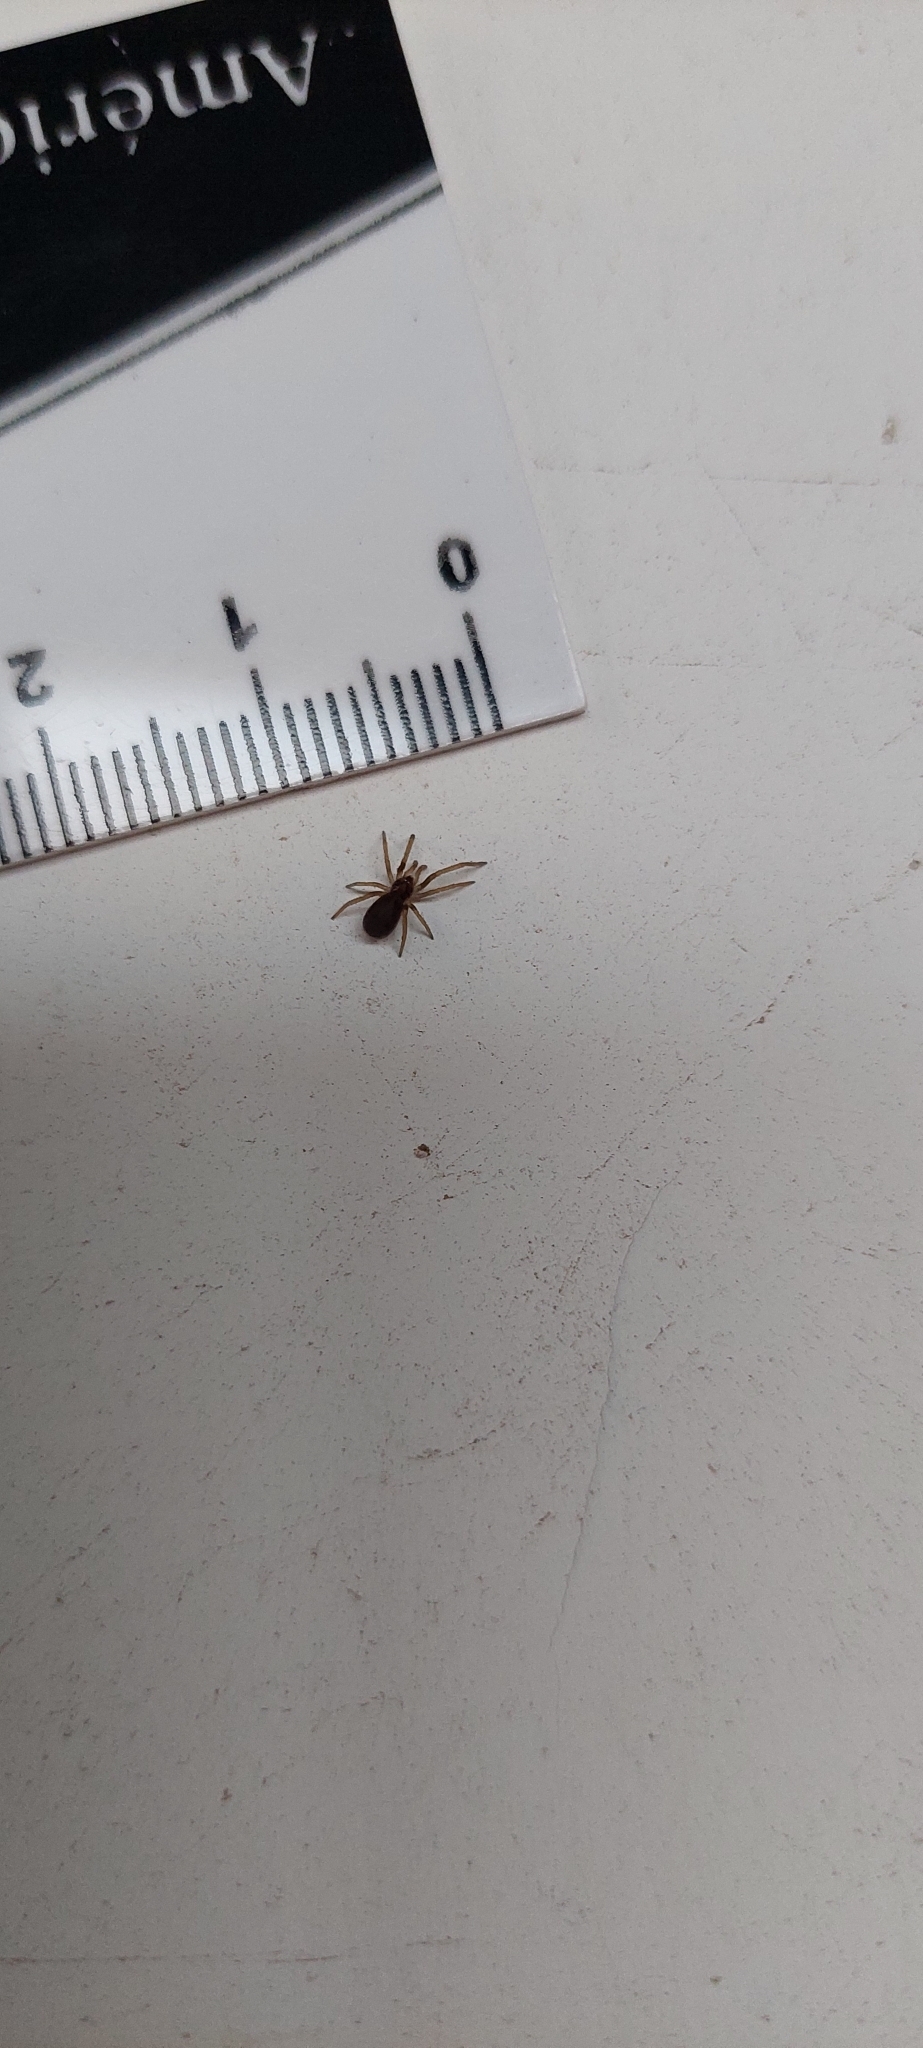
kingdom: Animalia
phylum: Arthropoda
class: Arachnida
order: Araneae
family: Filistatidae
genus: Kukulcania
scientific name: Kukulcania hibernalis
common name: Crevice weaver
